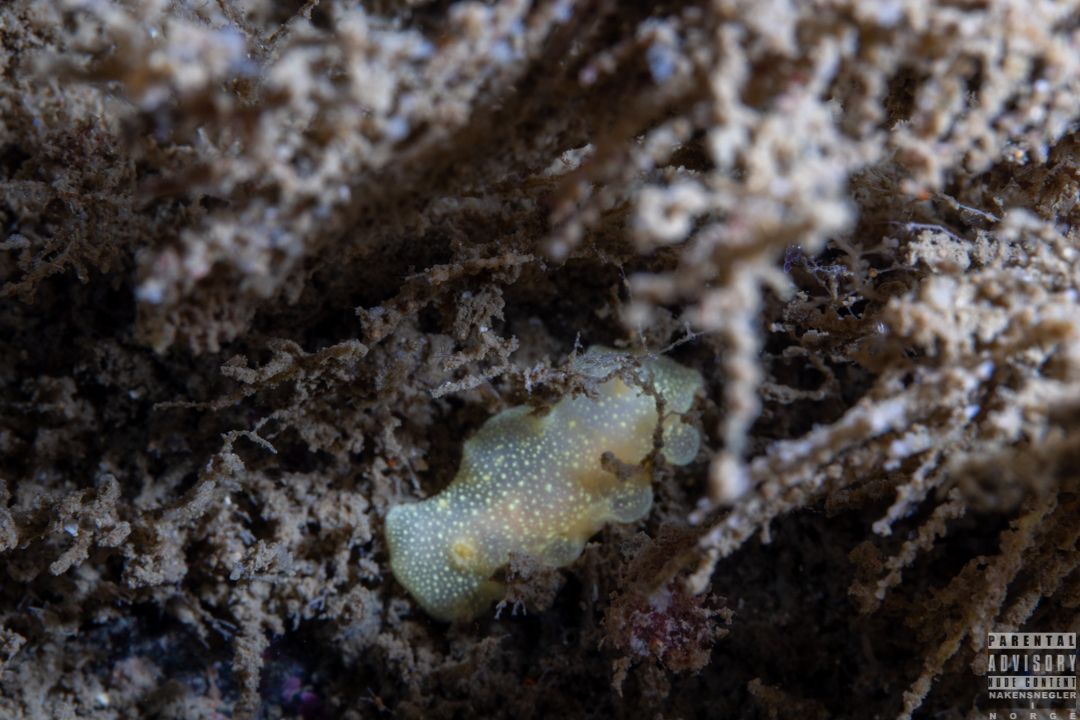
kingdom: Animalia
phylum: Mollusca
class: Gastropoda
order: Nudibranchia
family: Cadlinidae
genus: Cadlina
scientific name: Cadlina laevis
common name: White atlantic cadlina
